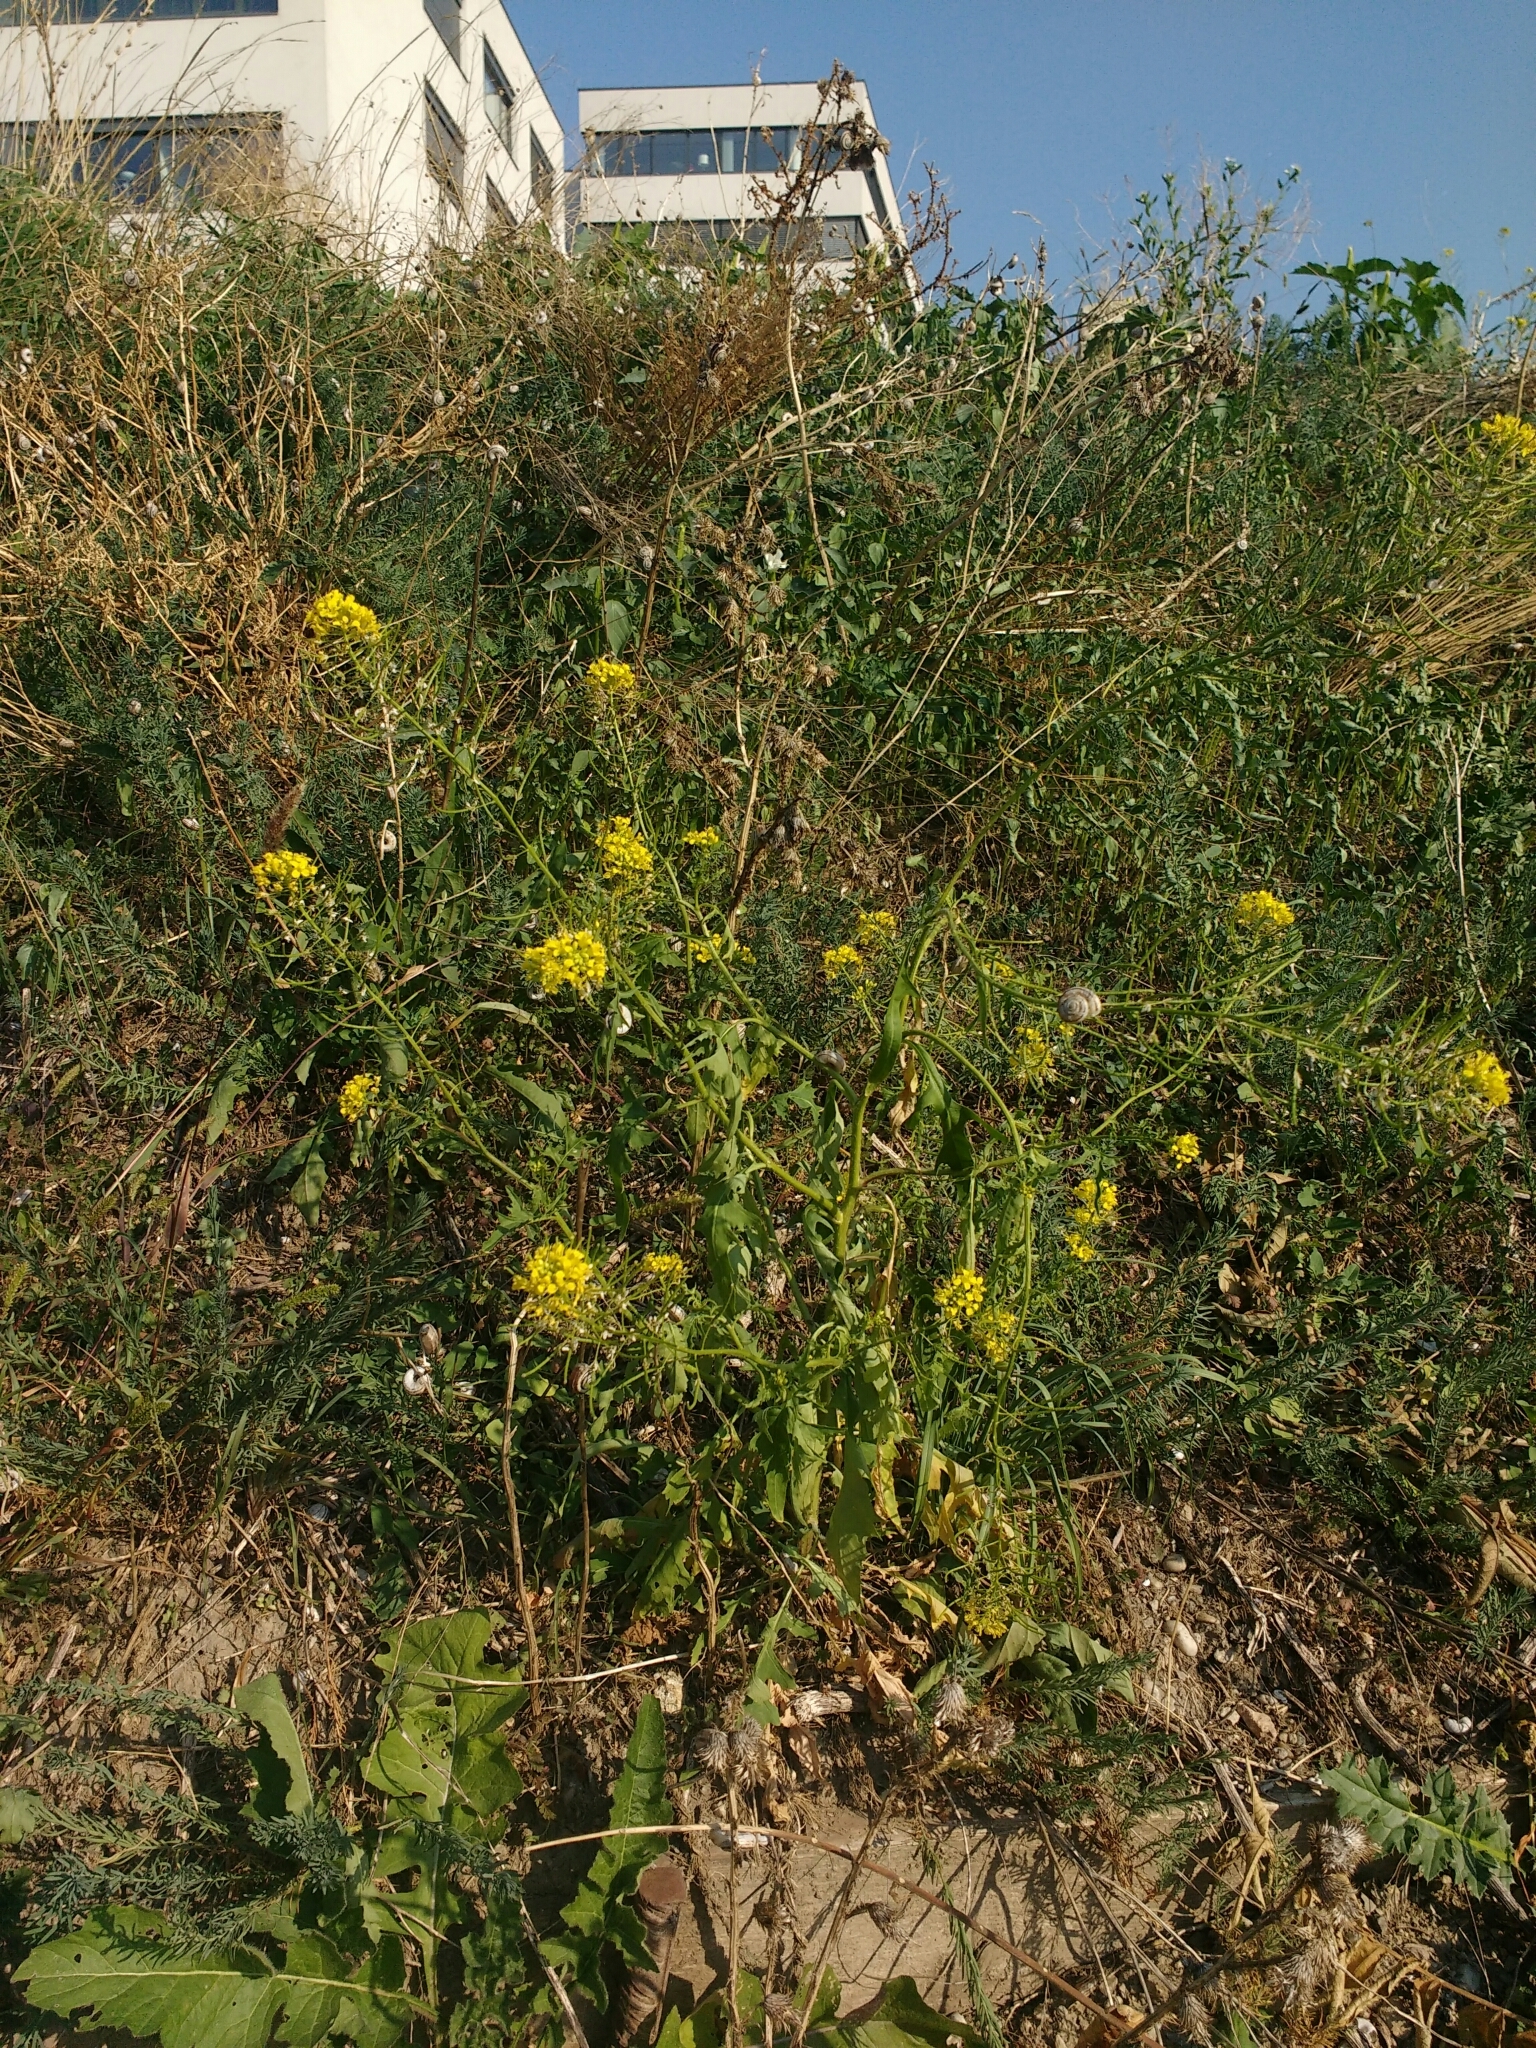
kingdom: Plantae
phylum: Tracheophyta
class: Magnoliopsida
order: Brassicales
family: Brassicaceae
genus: Sisymbrium
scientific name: Sisymbrium loeselii
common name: False london-rocket
